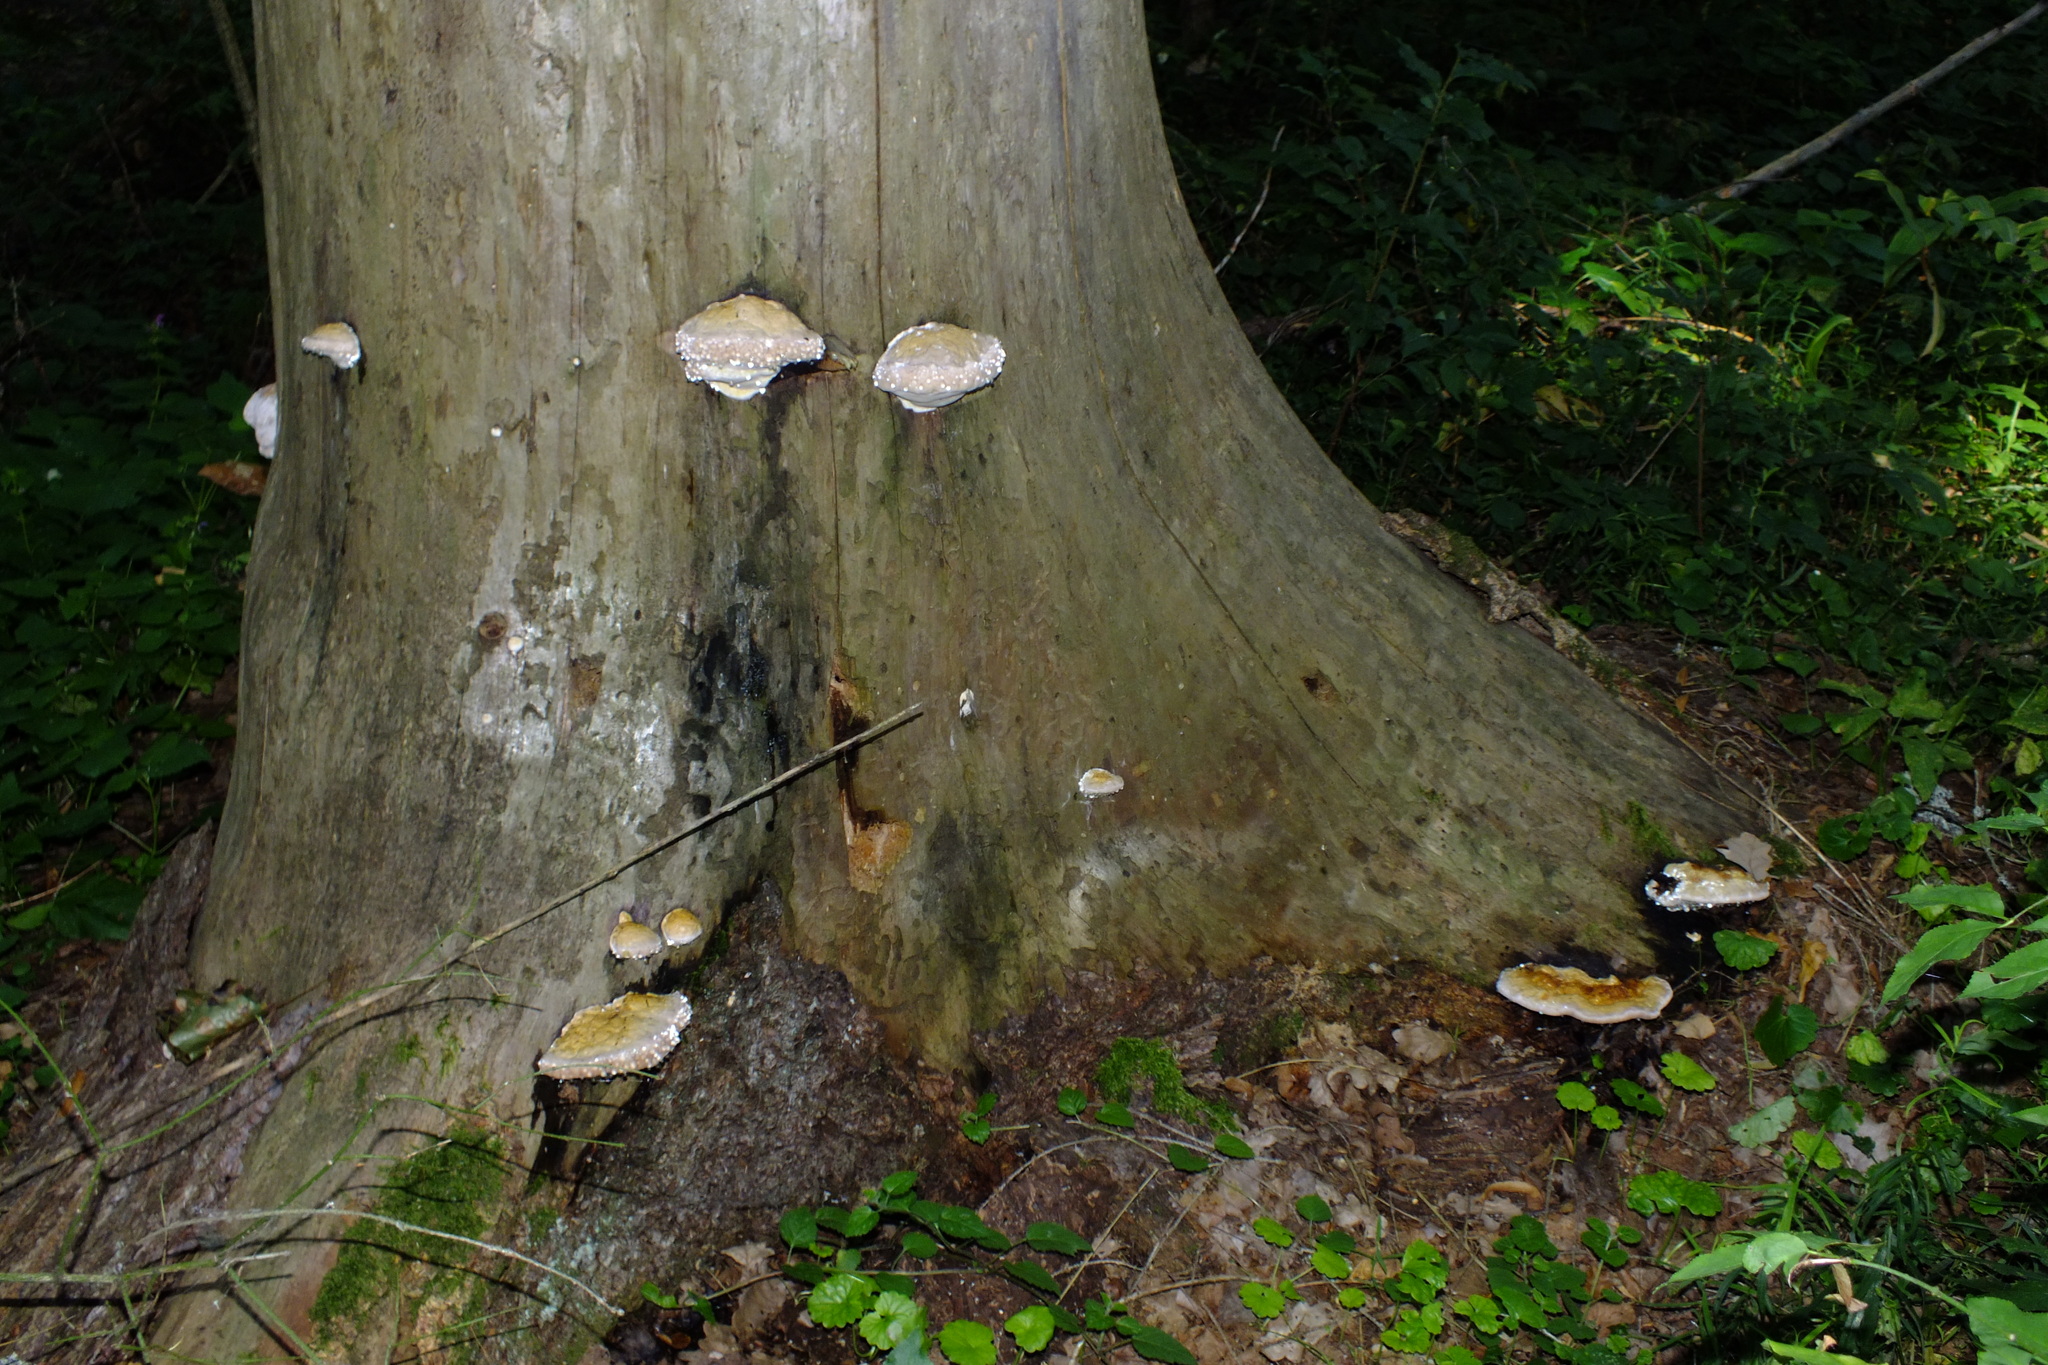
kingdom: Fungi
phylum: Basidiomycota
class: Agaricomycetes
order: Polyporales
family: Fomitopsidaceae
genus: Fomitopsis
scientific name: Fomitopsis pinicola
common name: Red-belted bracket
